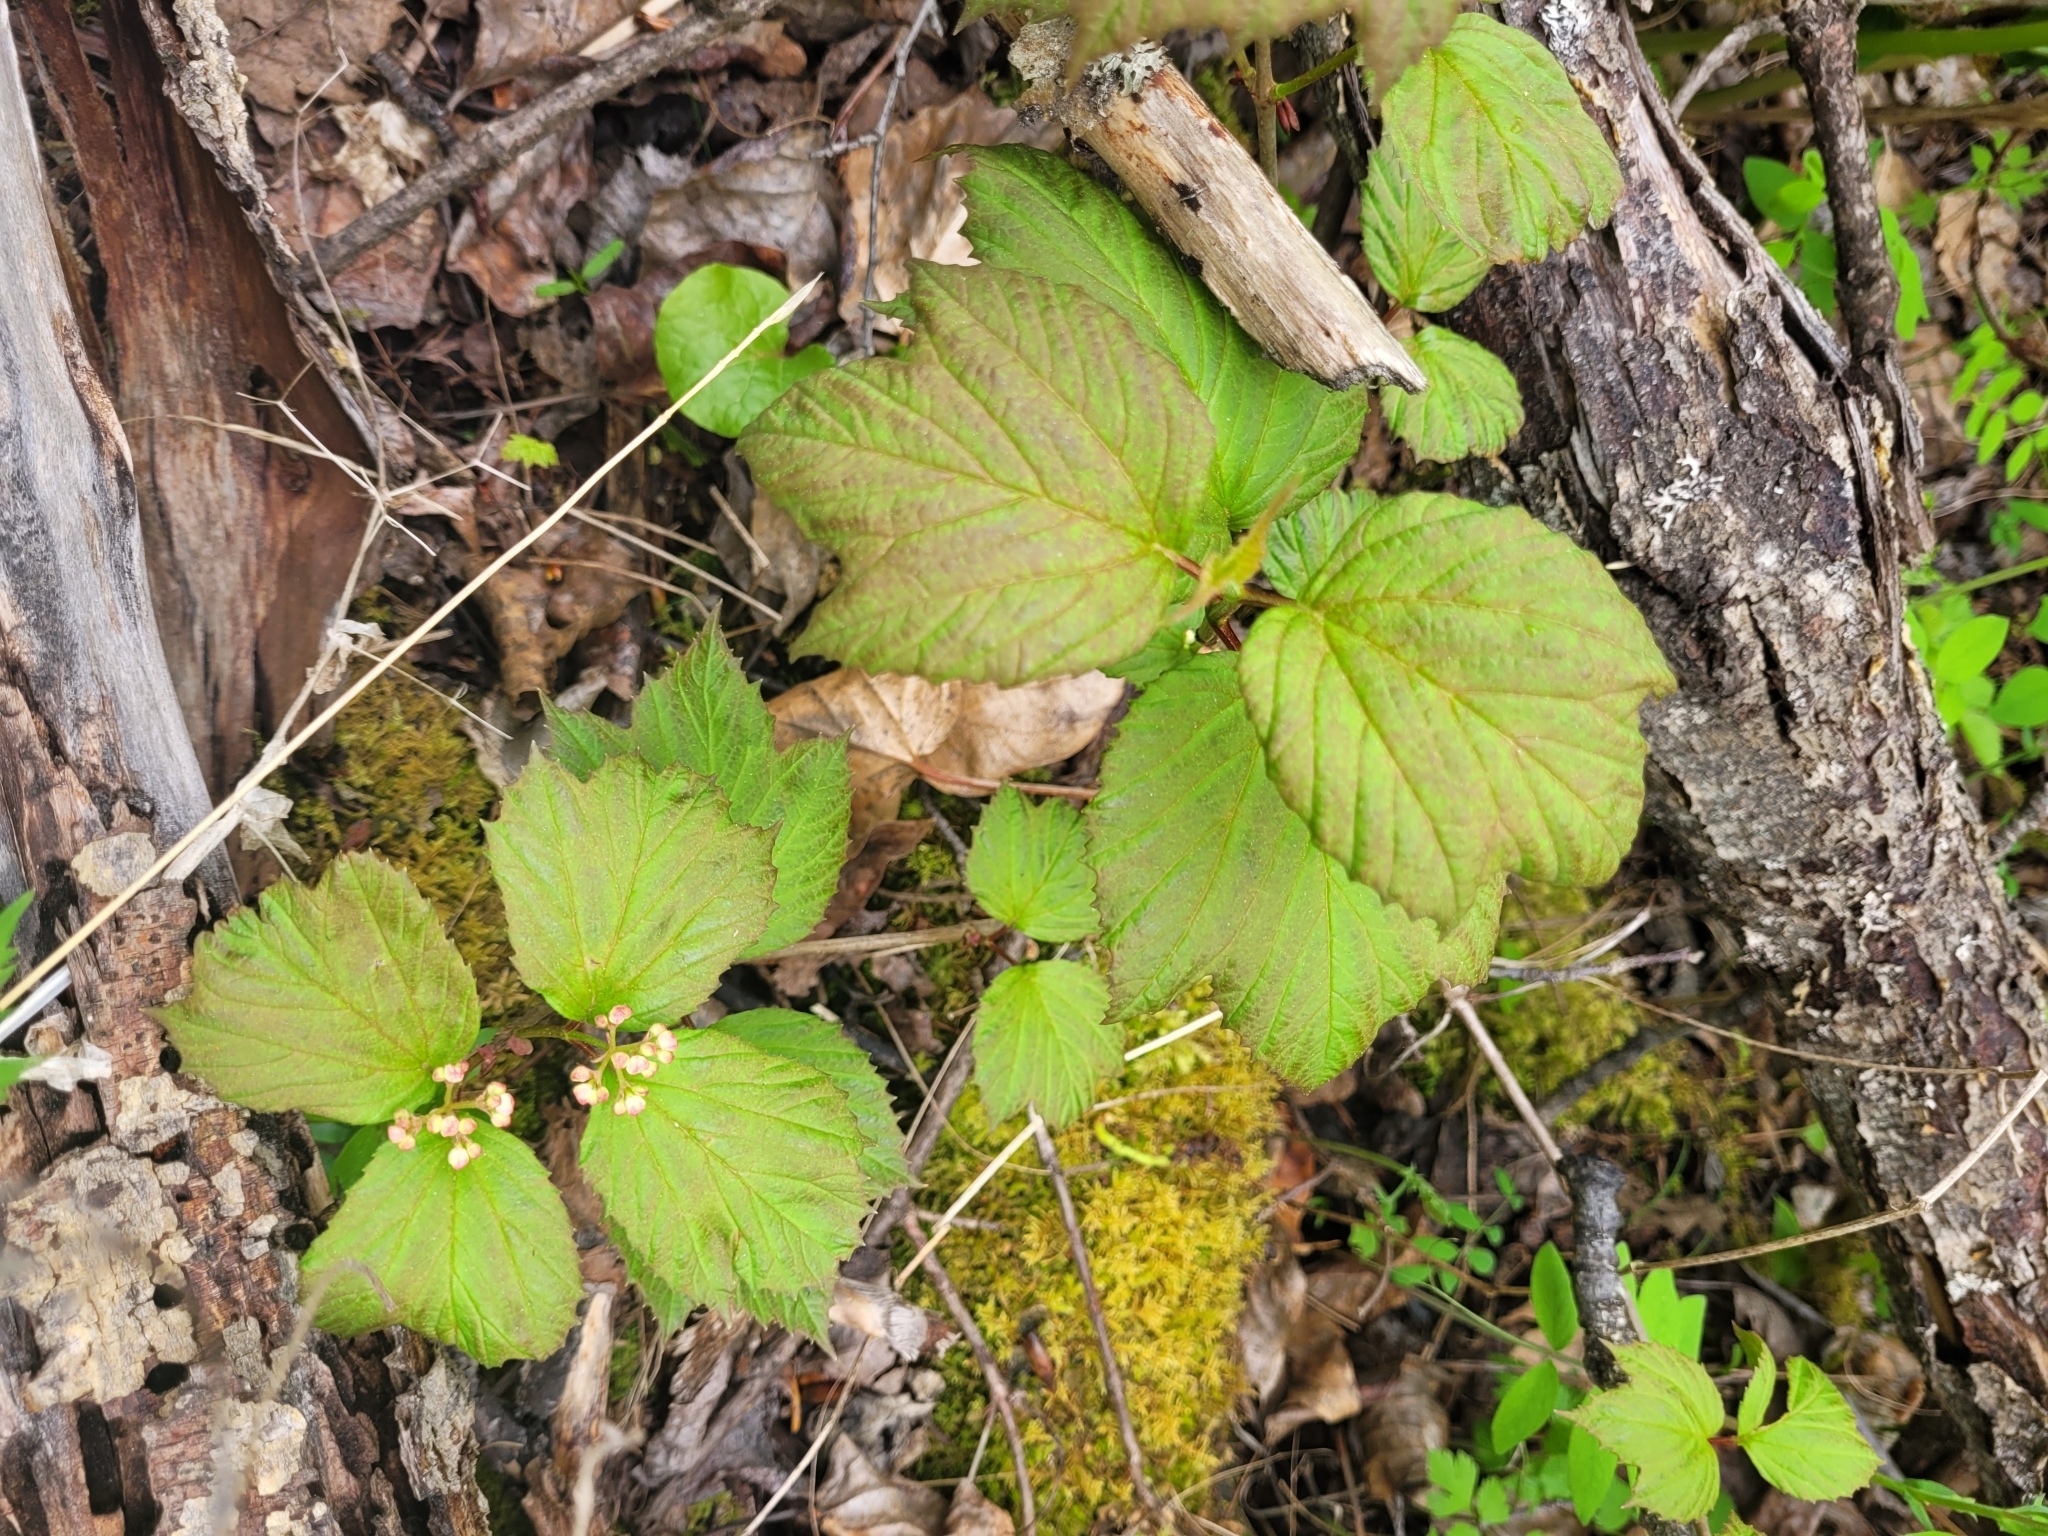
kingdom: Plantae
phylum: Tracheophyta
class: Magnoliopsida
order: Dipsacales
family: Viburnaceae
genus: Viburnum
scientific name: Viburnum edule
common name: Mooseberry
